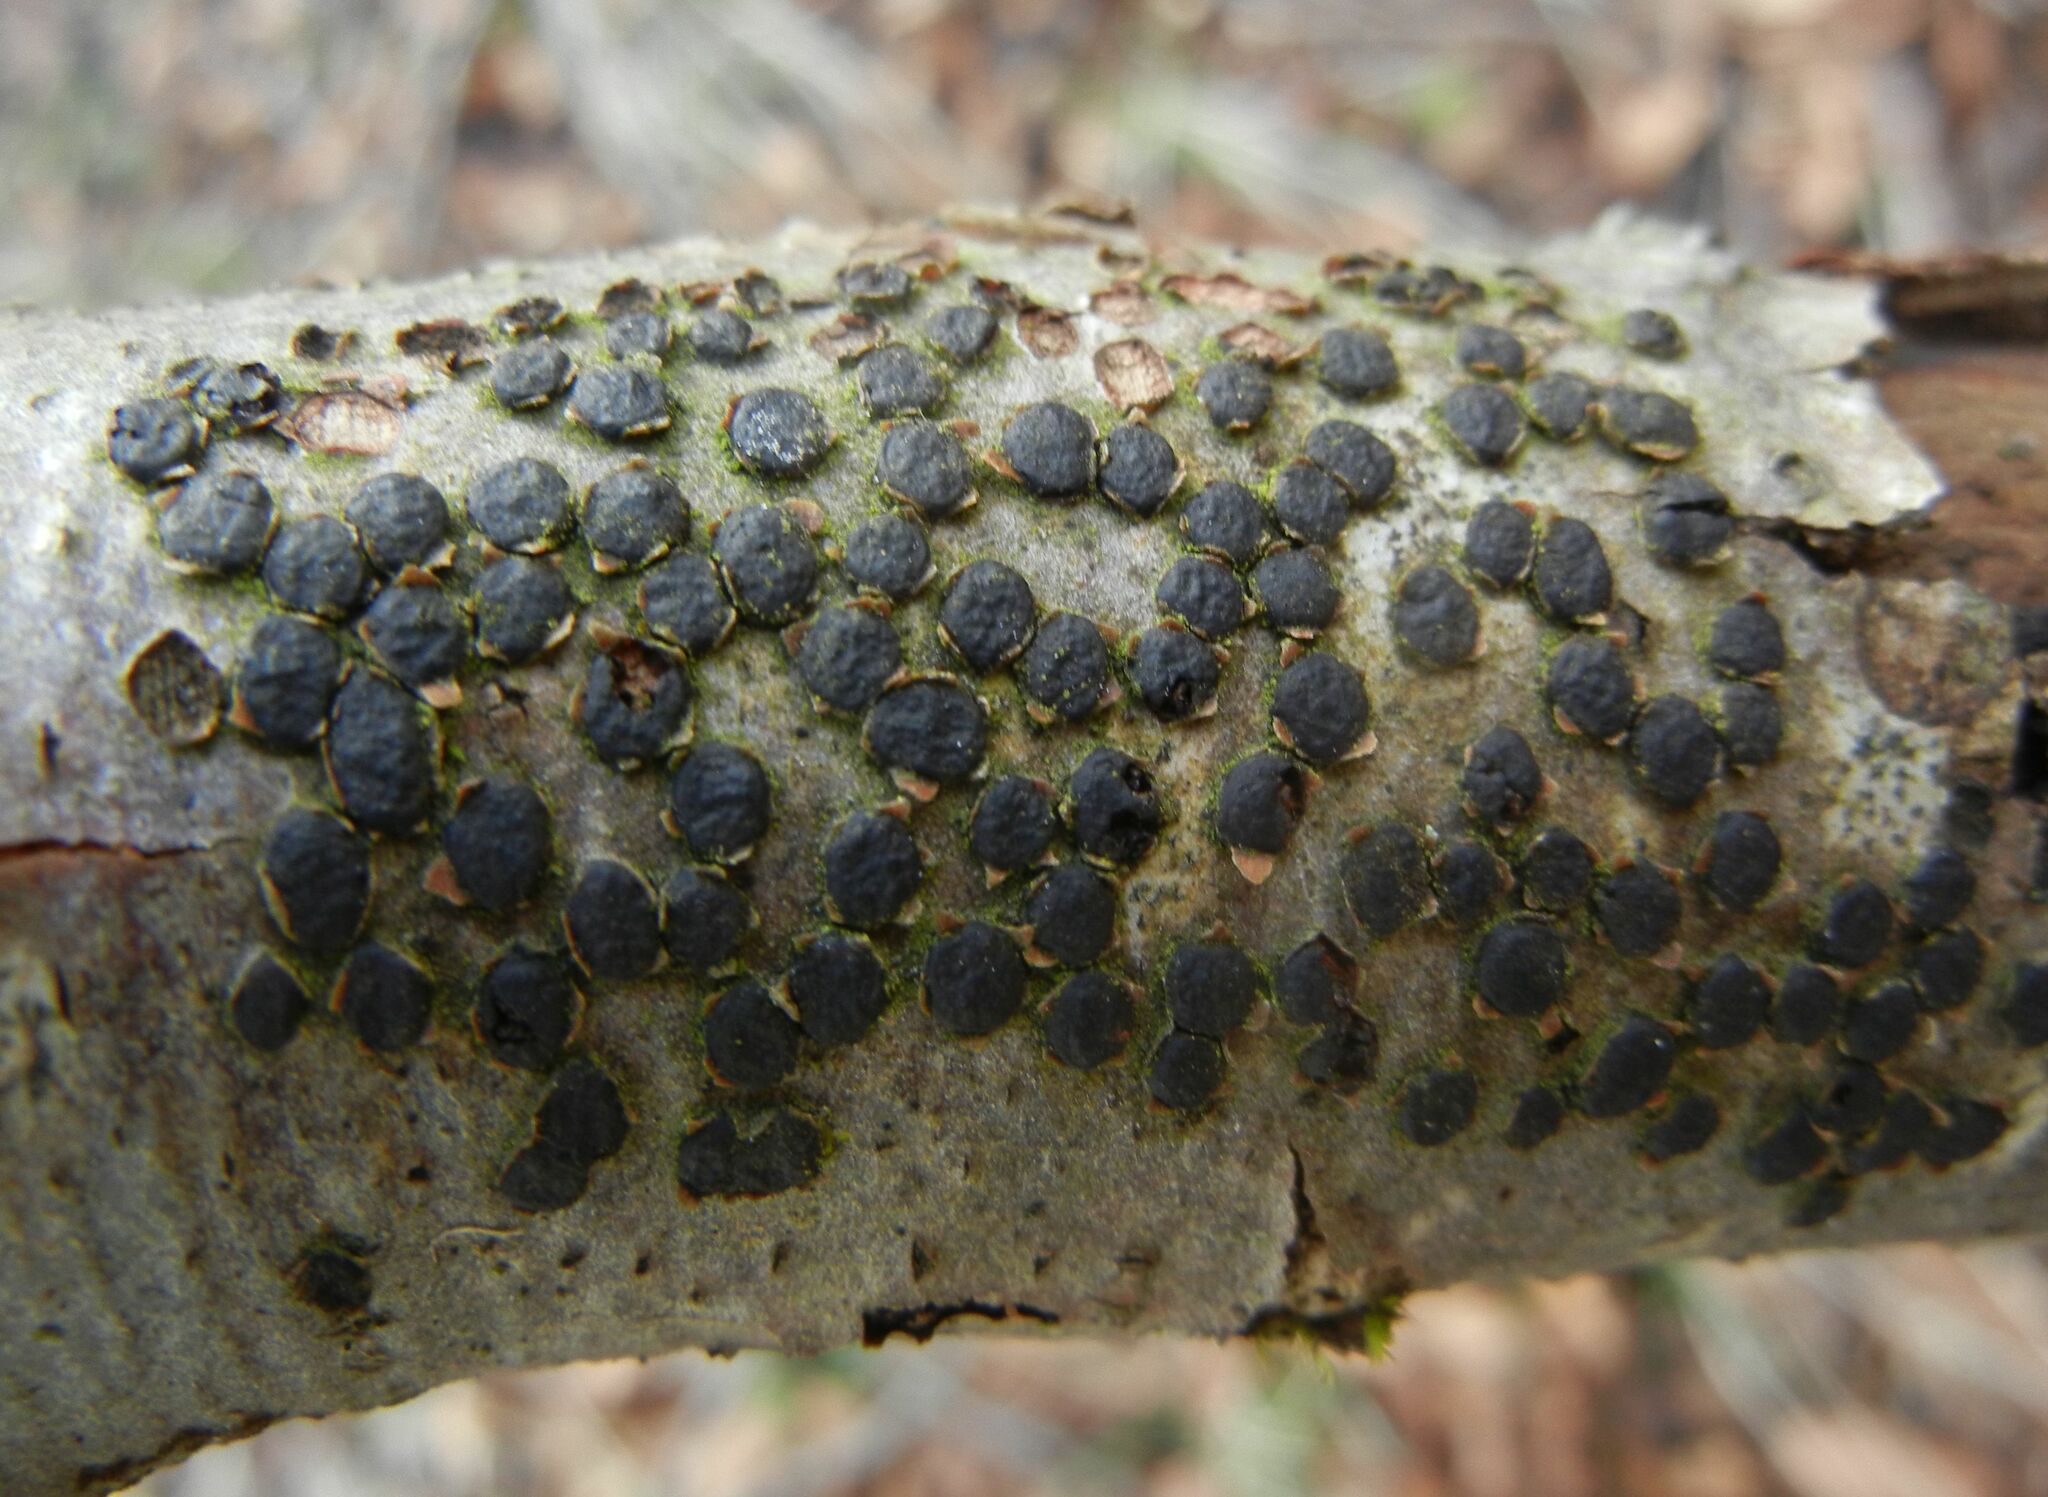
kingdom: Fungi
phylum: Ascomycota
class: Sordariomycetes
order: Xylariales
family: Diatrypaceae
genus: Diatrype
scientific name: Diatrype disciformis
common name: Beech barkspot
